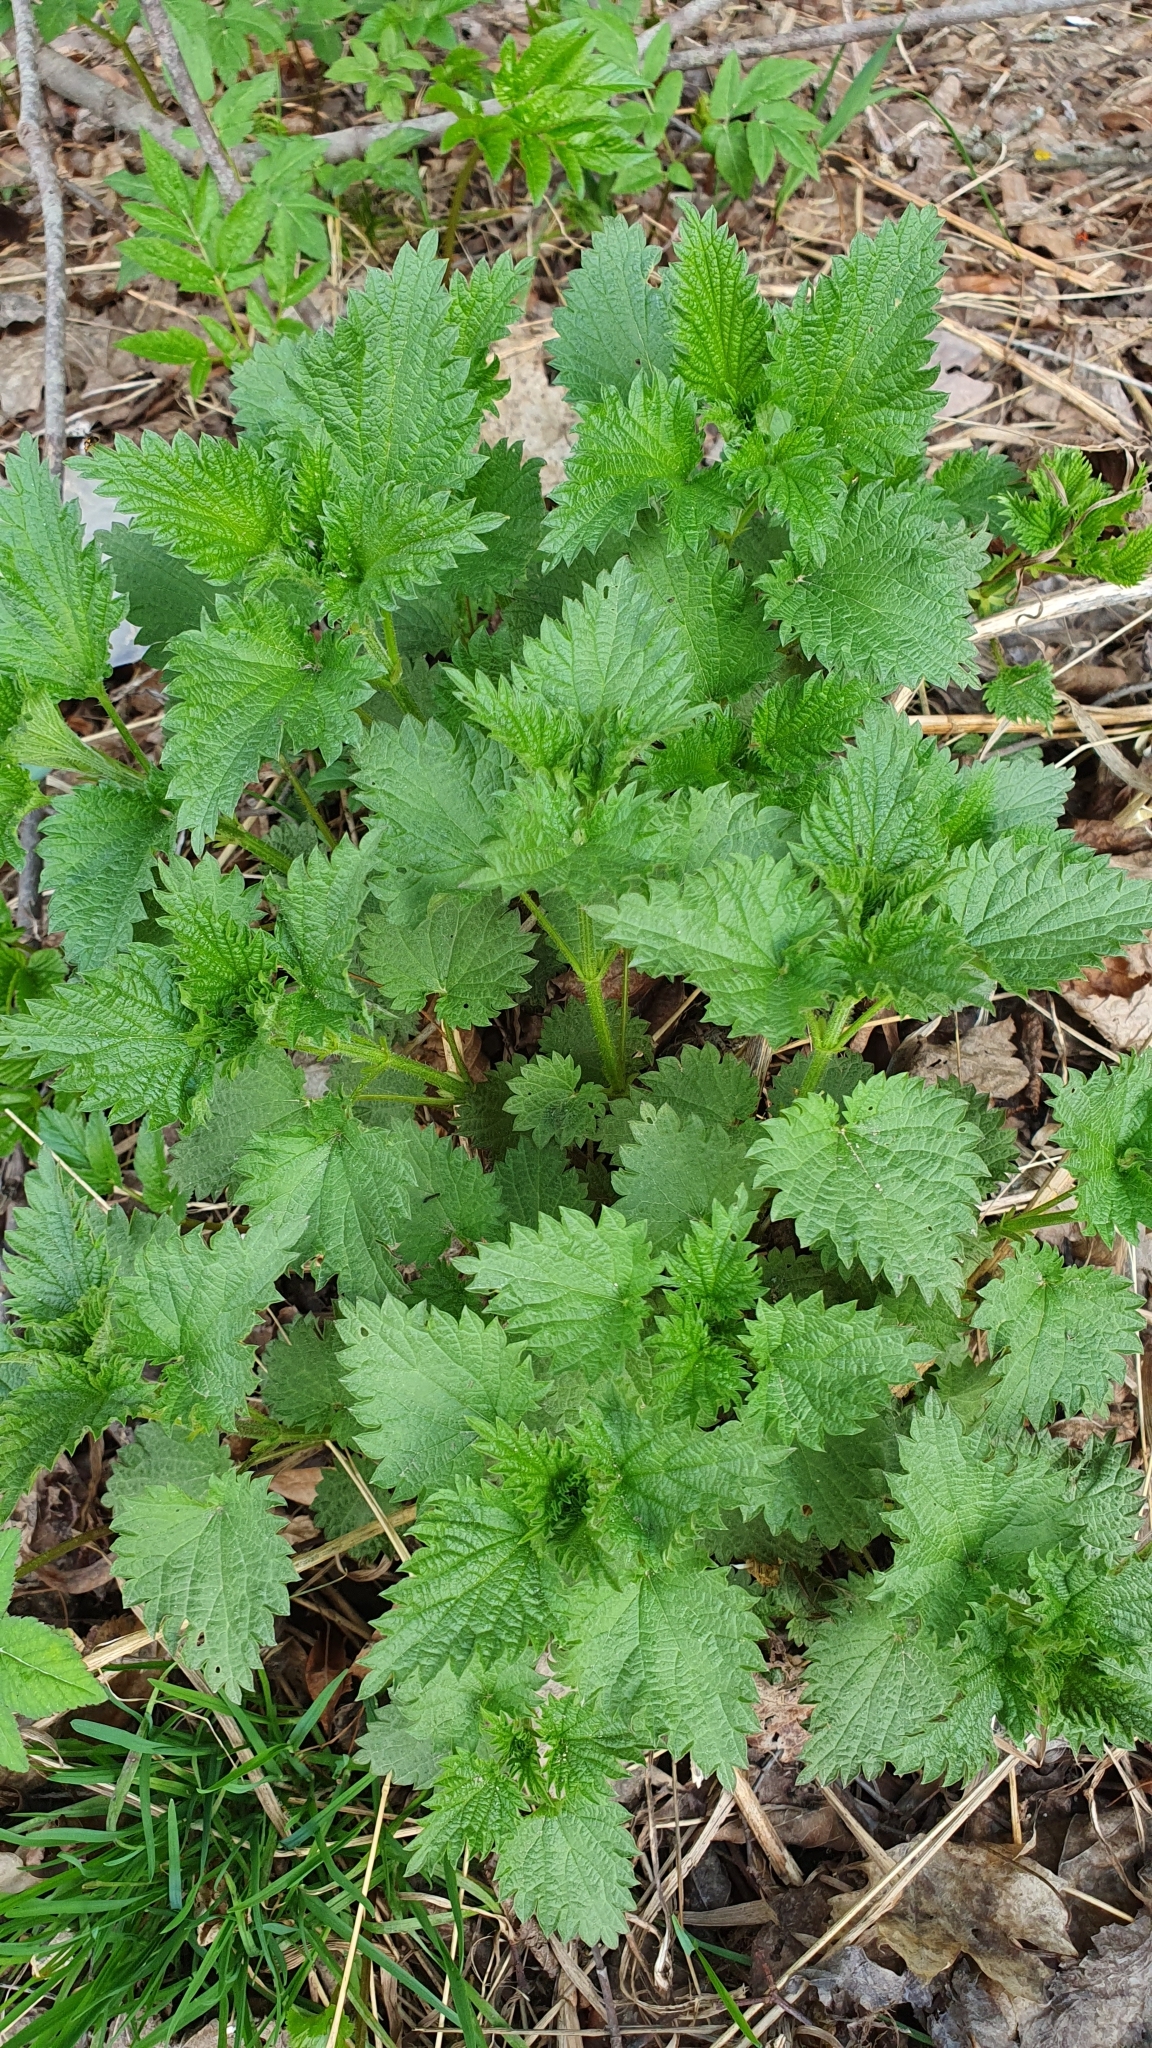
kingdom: Plantae
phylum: Tracheophyta
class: Magnoliopsida
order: Rosales
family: Urticaceae
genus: Urtica
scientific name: Urtica dioica
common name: Common nettle
